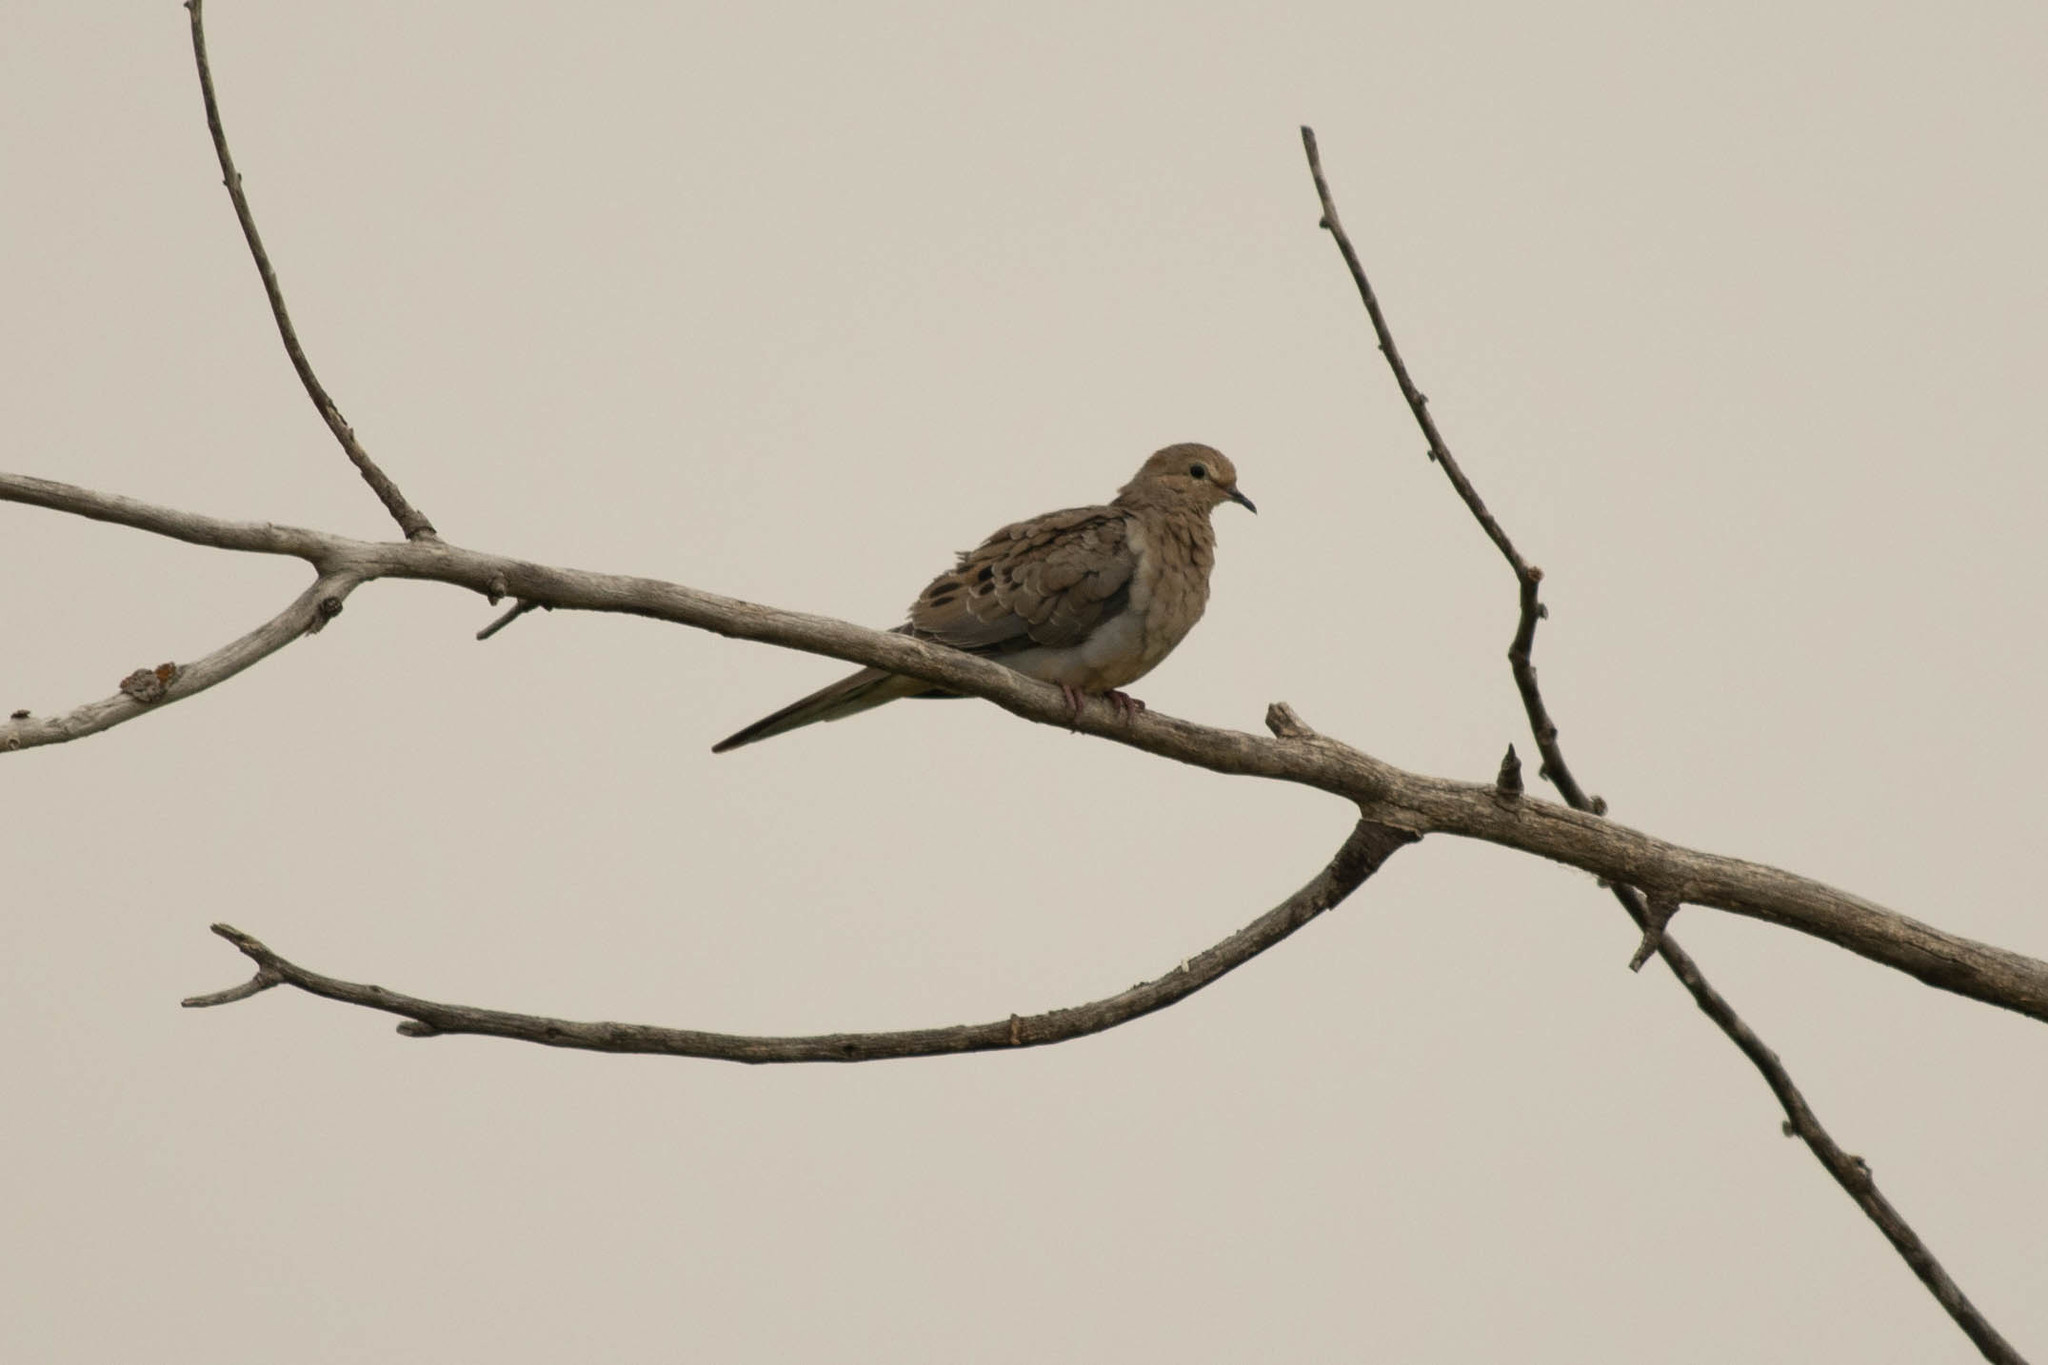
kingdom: Animalia
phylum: Chordata
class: Aves
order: Columbiformes
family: Columbidae
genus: Zenaida
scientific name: Zenaida macroura
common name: Mourning dove
